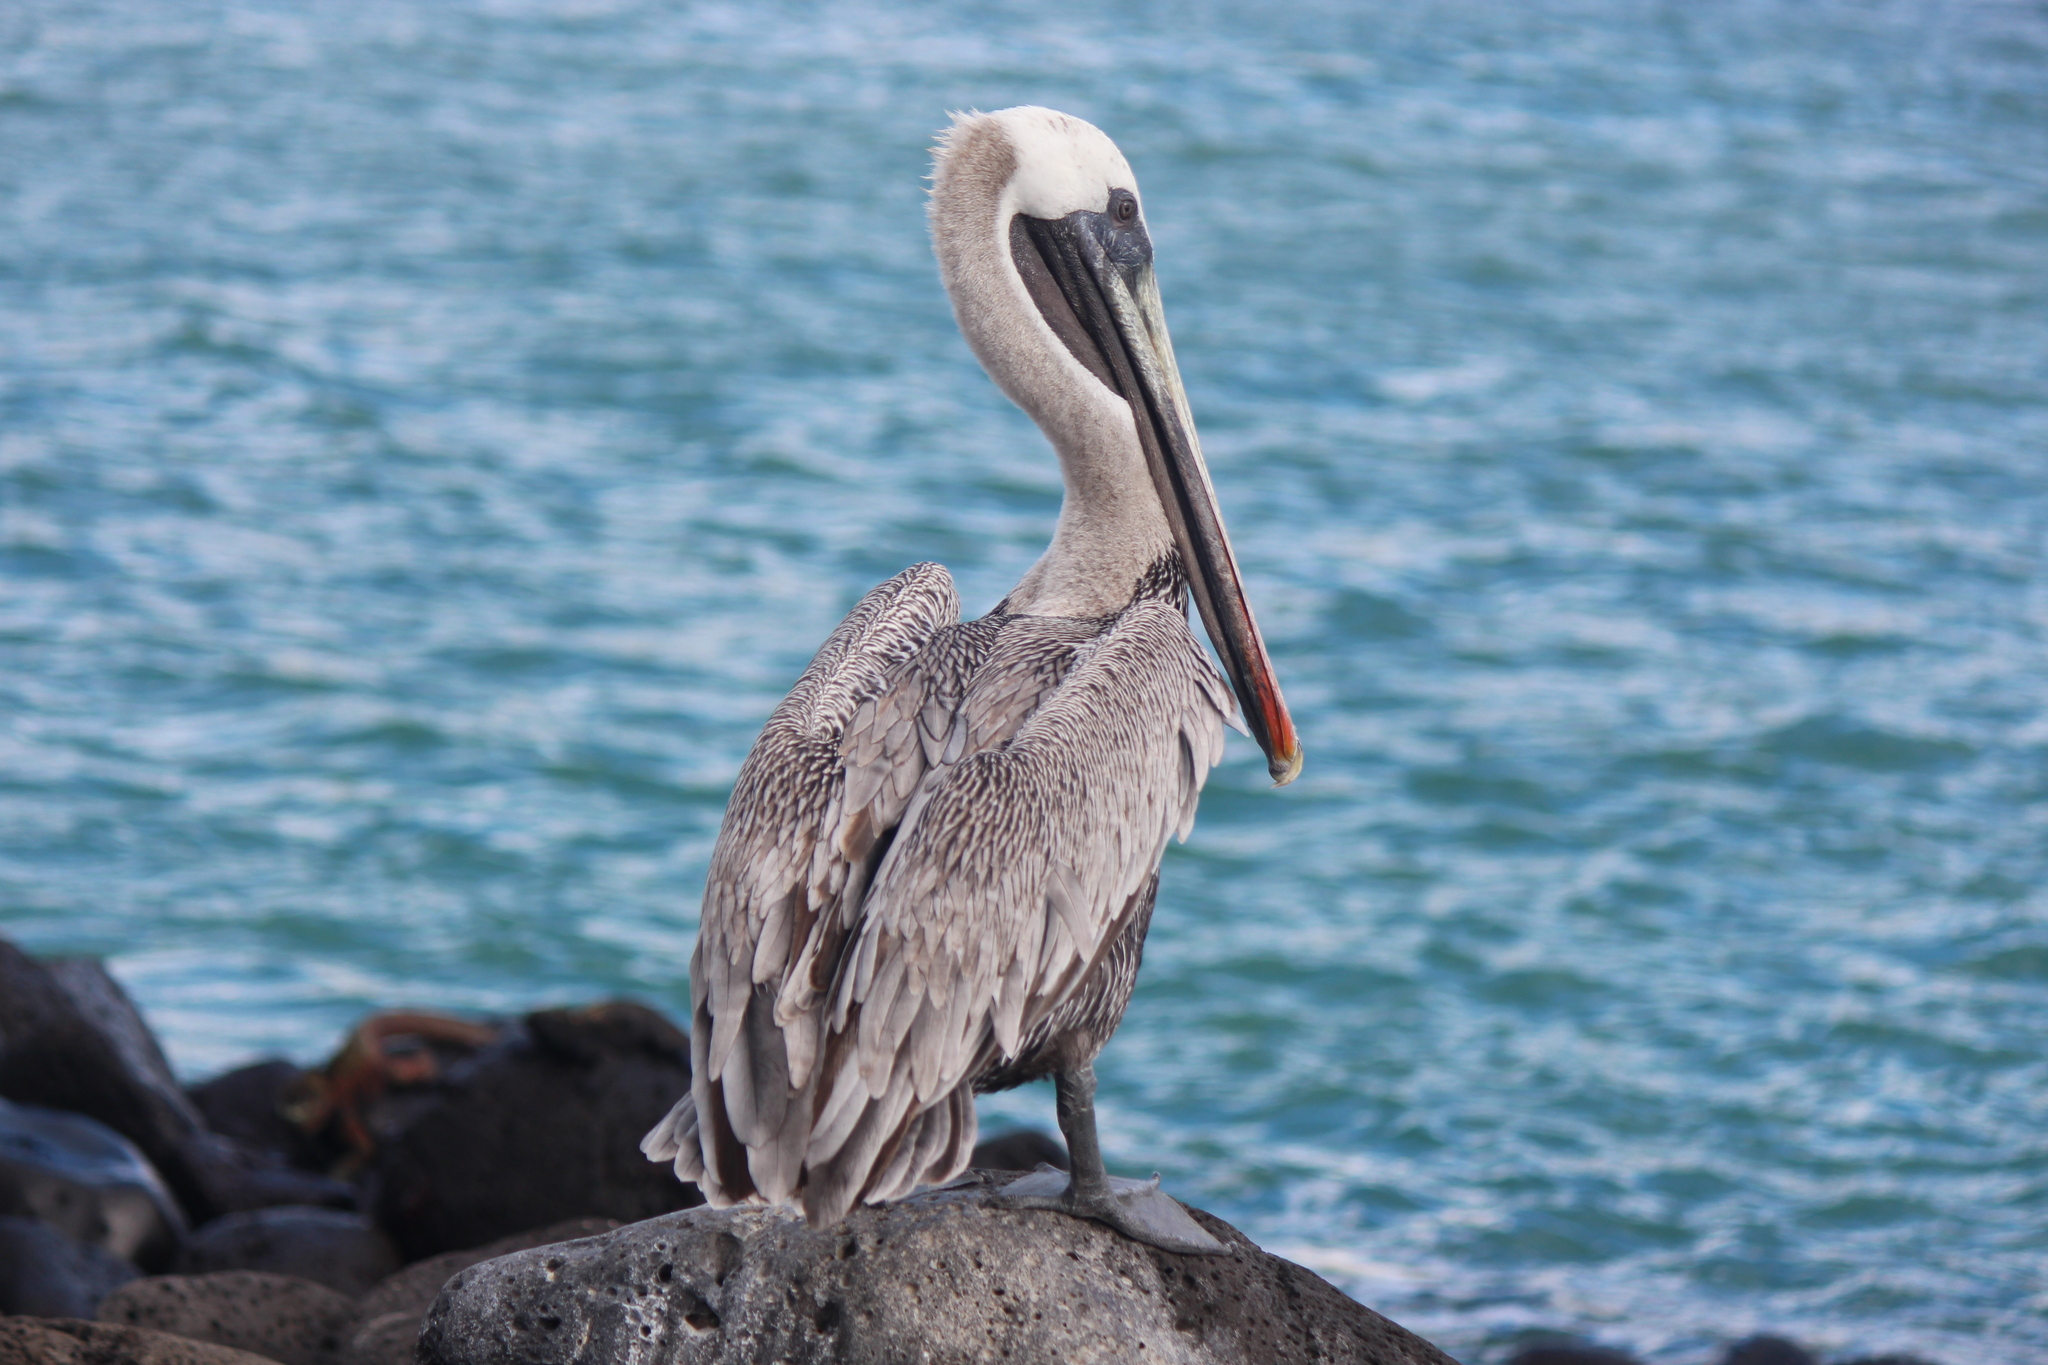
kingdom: Animalia
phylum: Chordata
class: Aves
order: Pelecaniformes
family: Pelecanidae
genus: Pelecanus
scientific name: Pelecanus occidentalis
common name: Brown pelican
